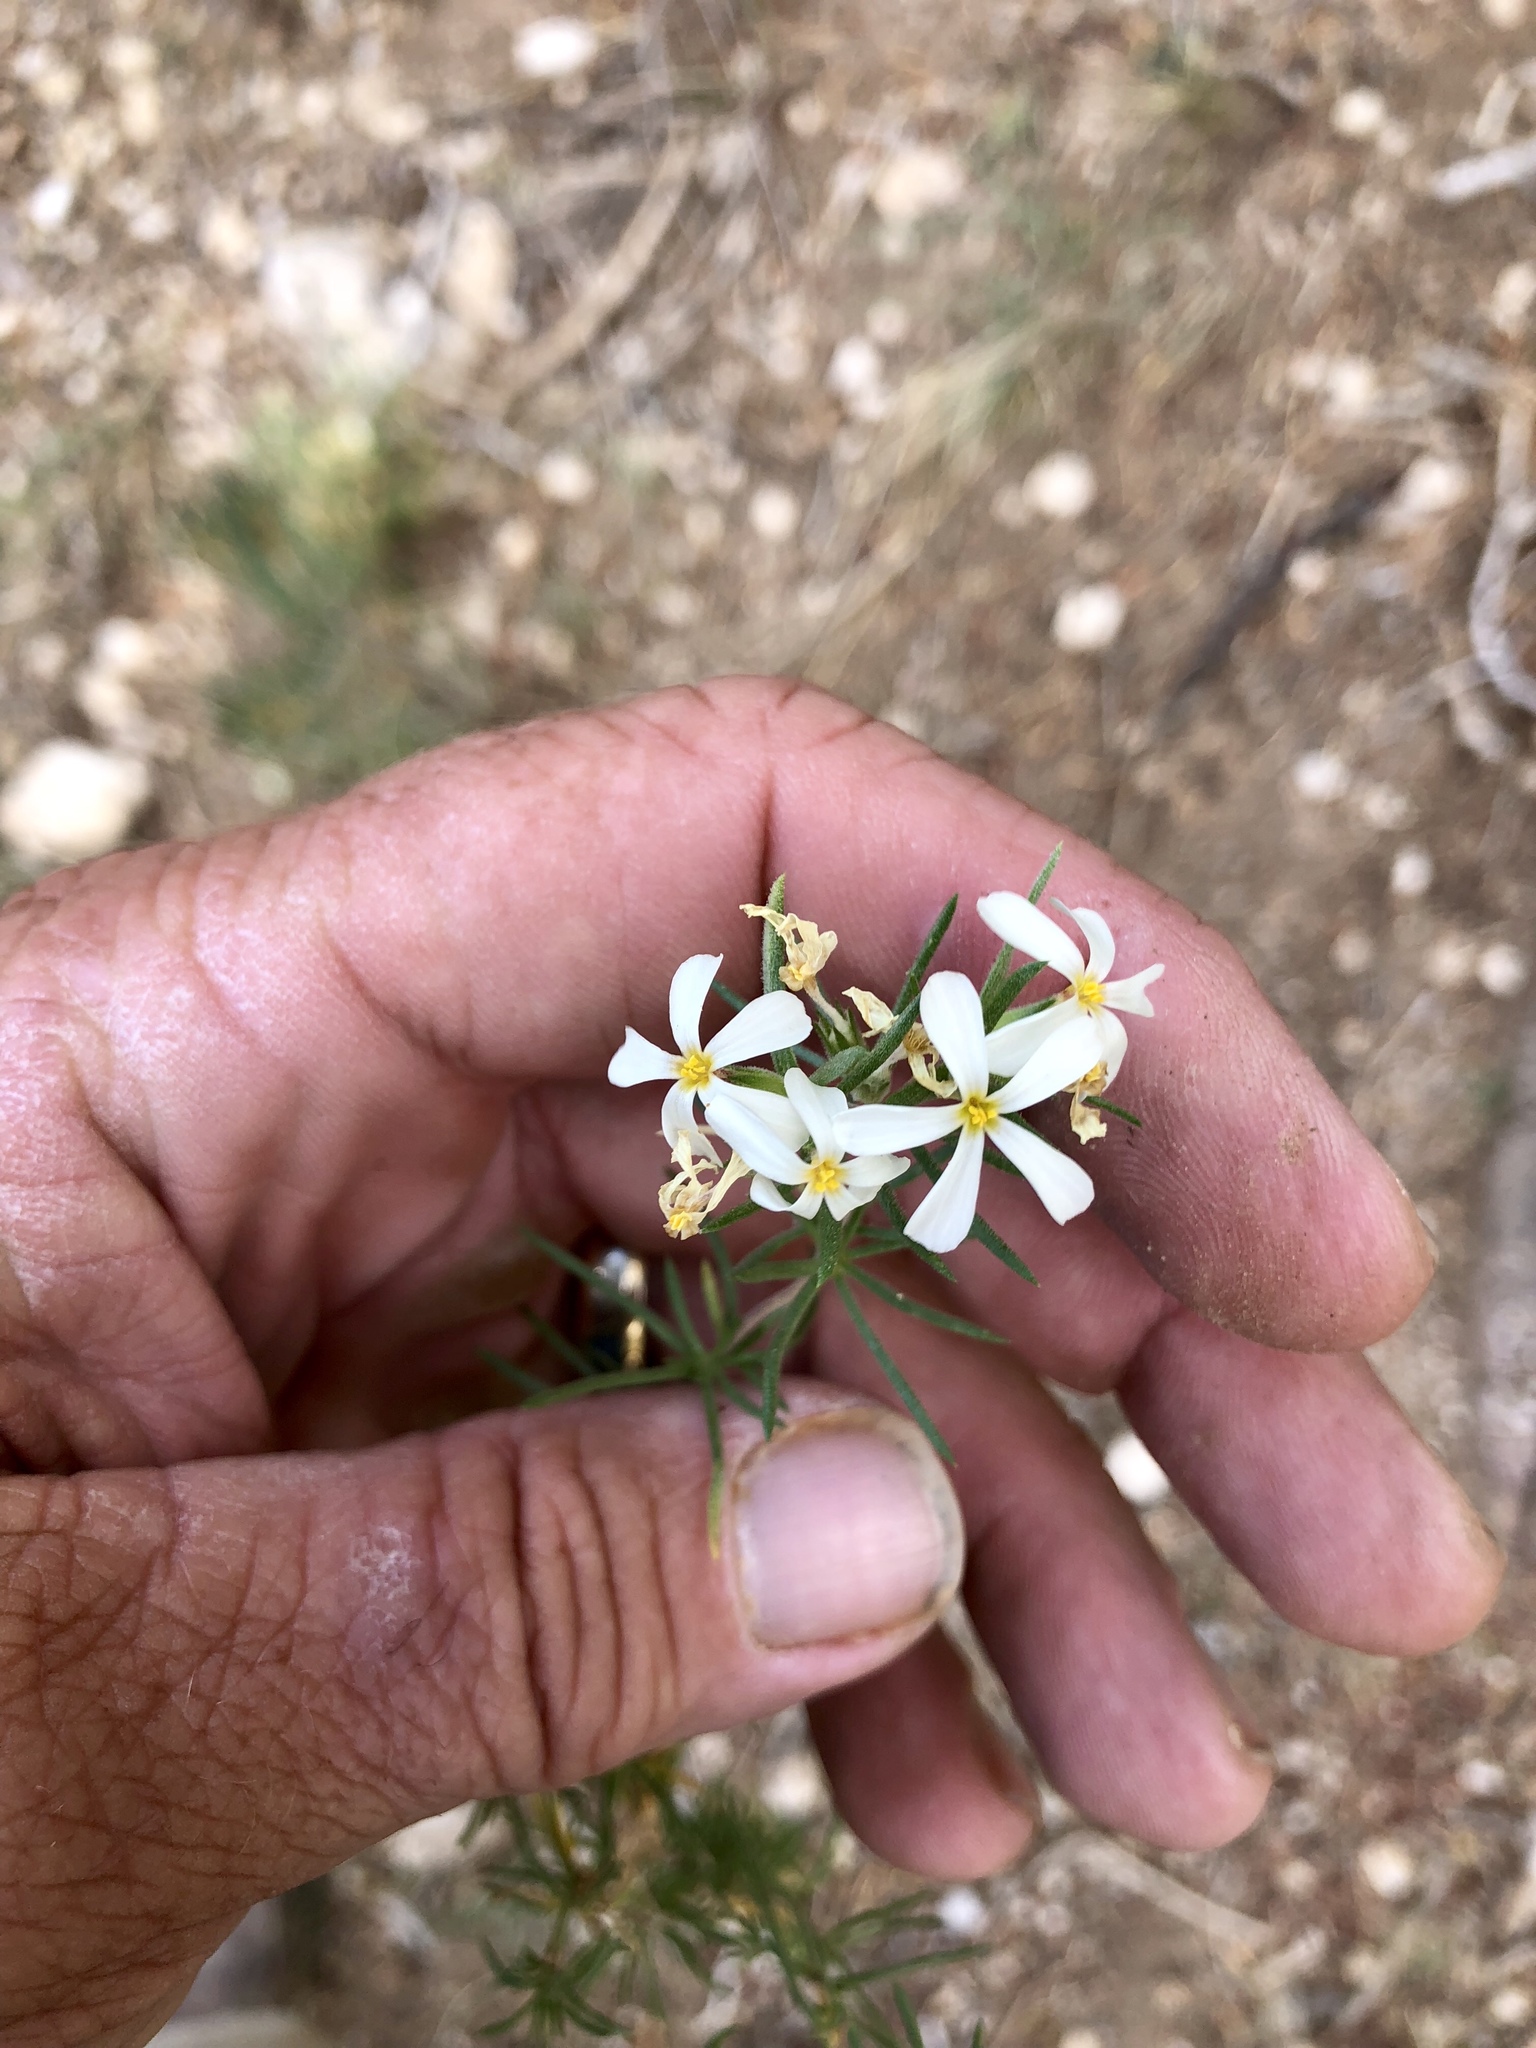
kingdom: Plantae
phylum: Tracheophyta
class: Magnoliopsida
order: Ericales
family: Polemoniaceae
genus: Leptosiphon
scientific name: Leptosiphon nuttallii
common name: Nuttall's linanthus
